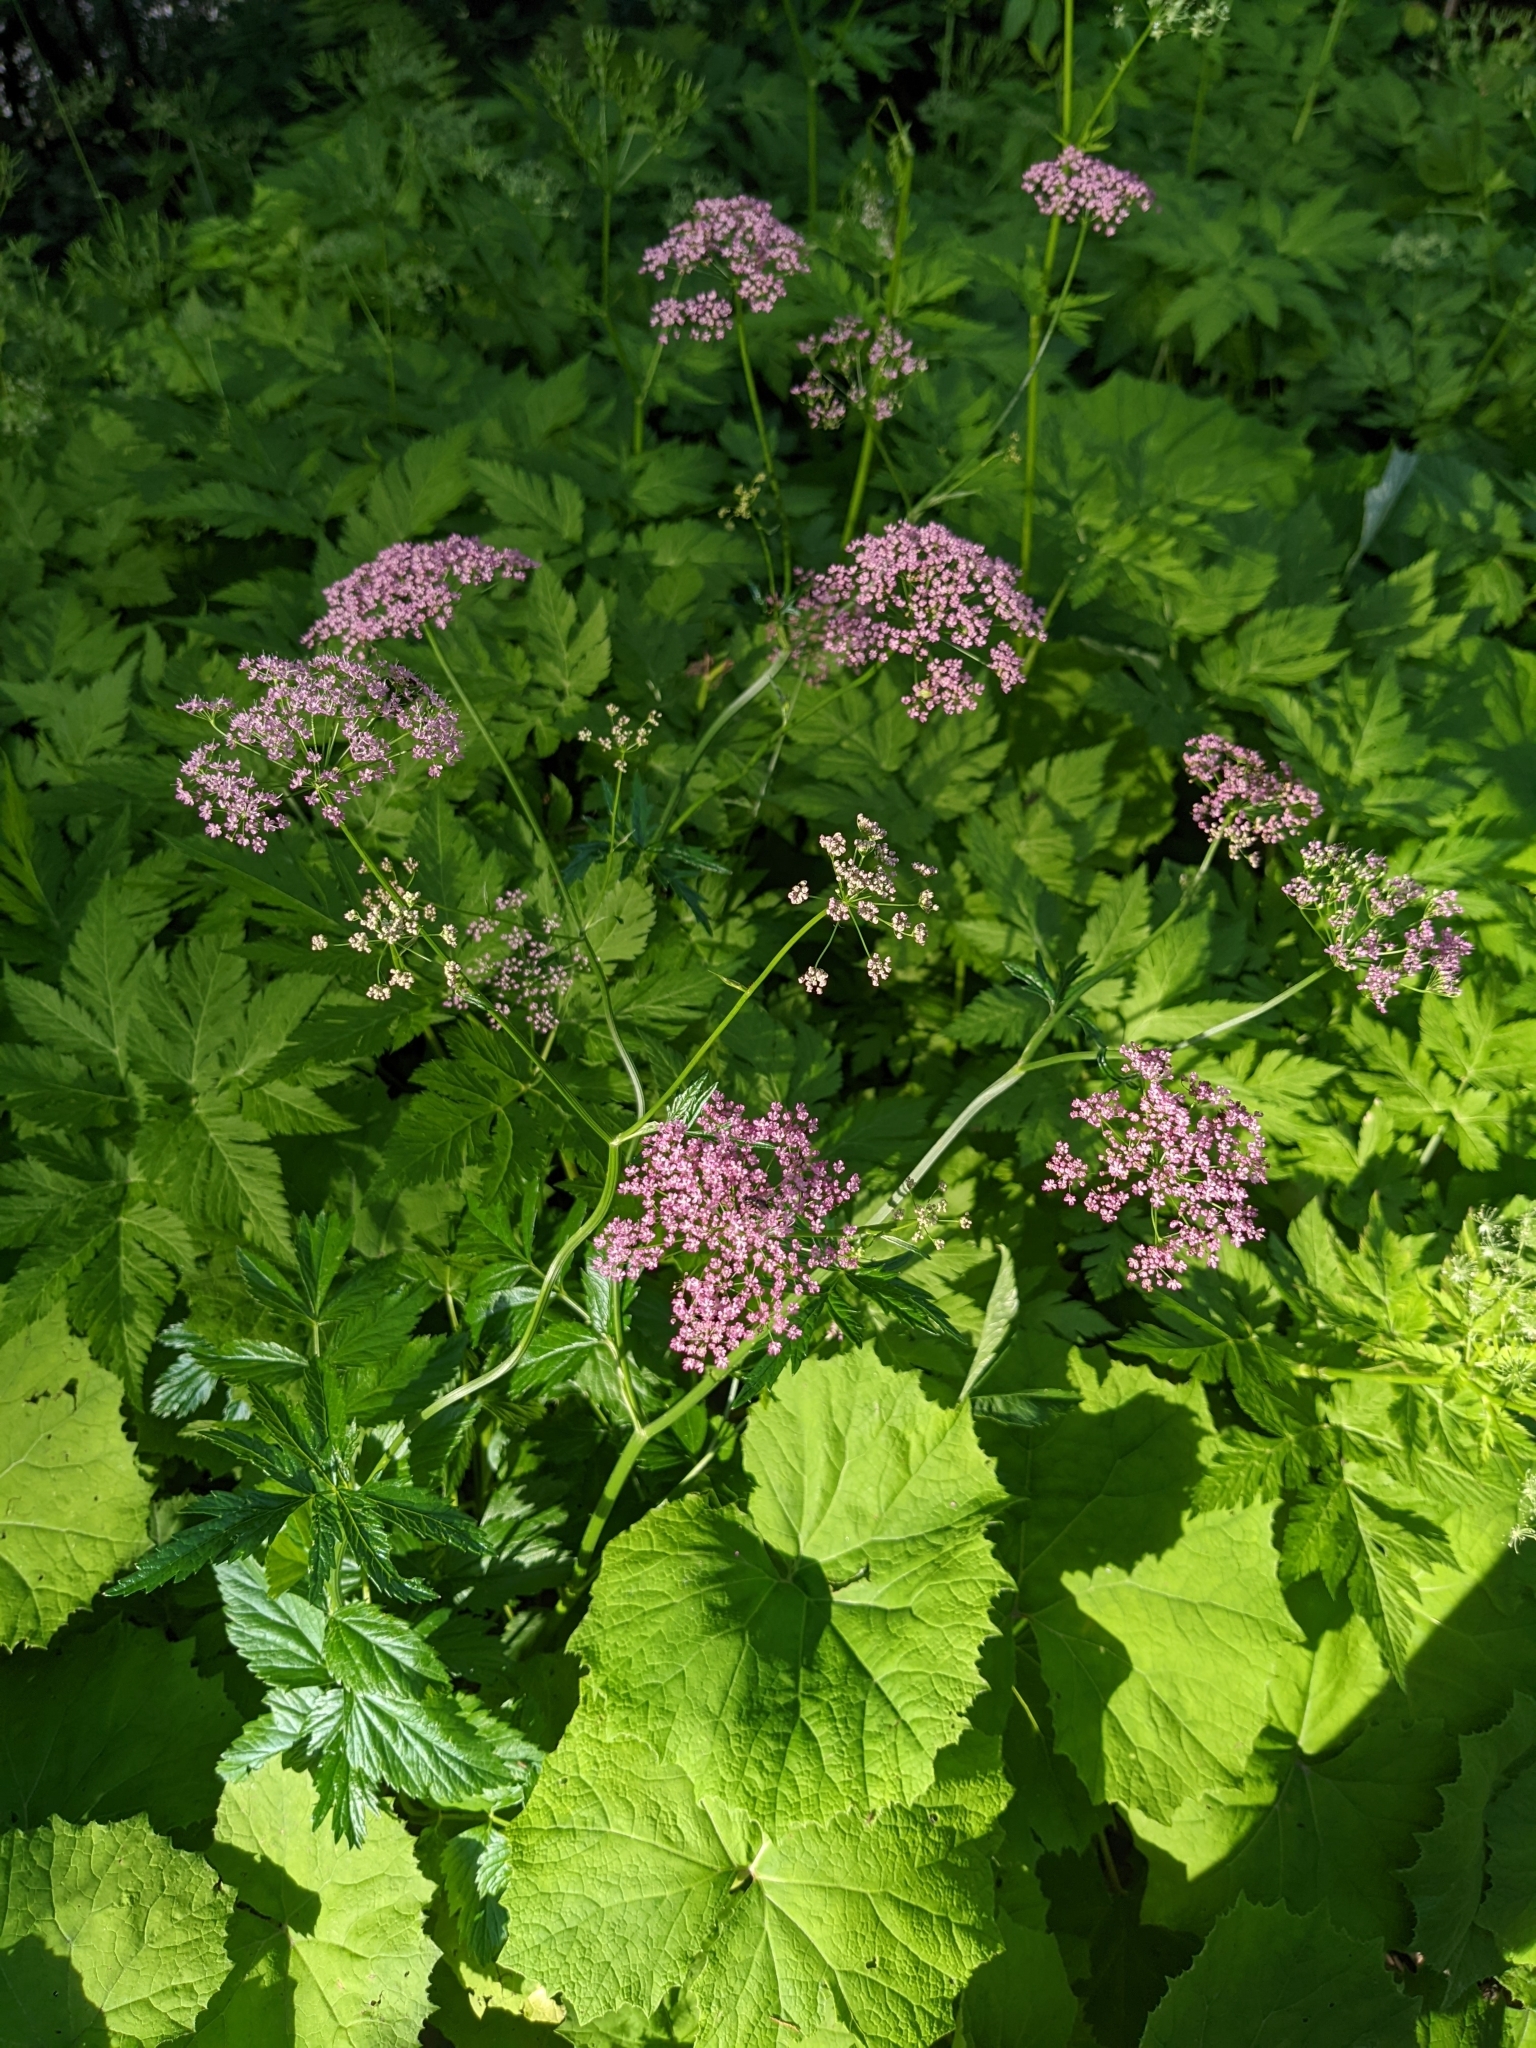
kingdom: Plantae
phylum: Tracheophyta
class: Magnoliopsida
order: Apiales
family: Apiaceae
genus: Pimpinella
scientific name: Pimpinella major
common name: Greater burnet-saxifrage
